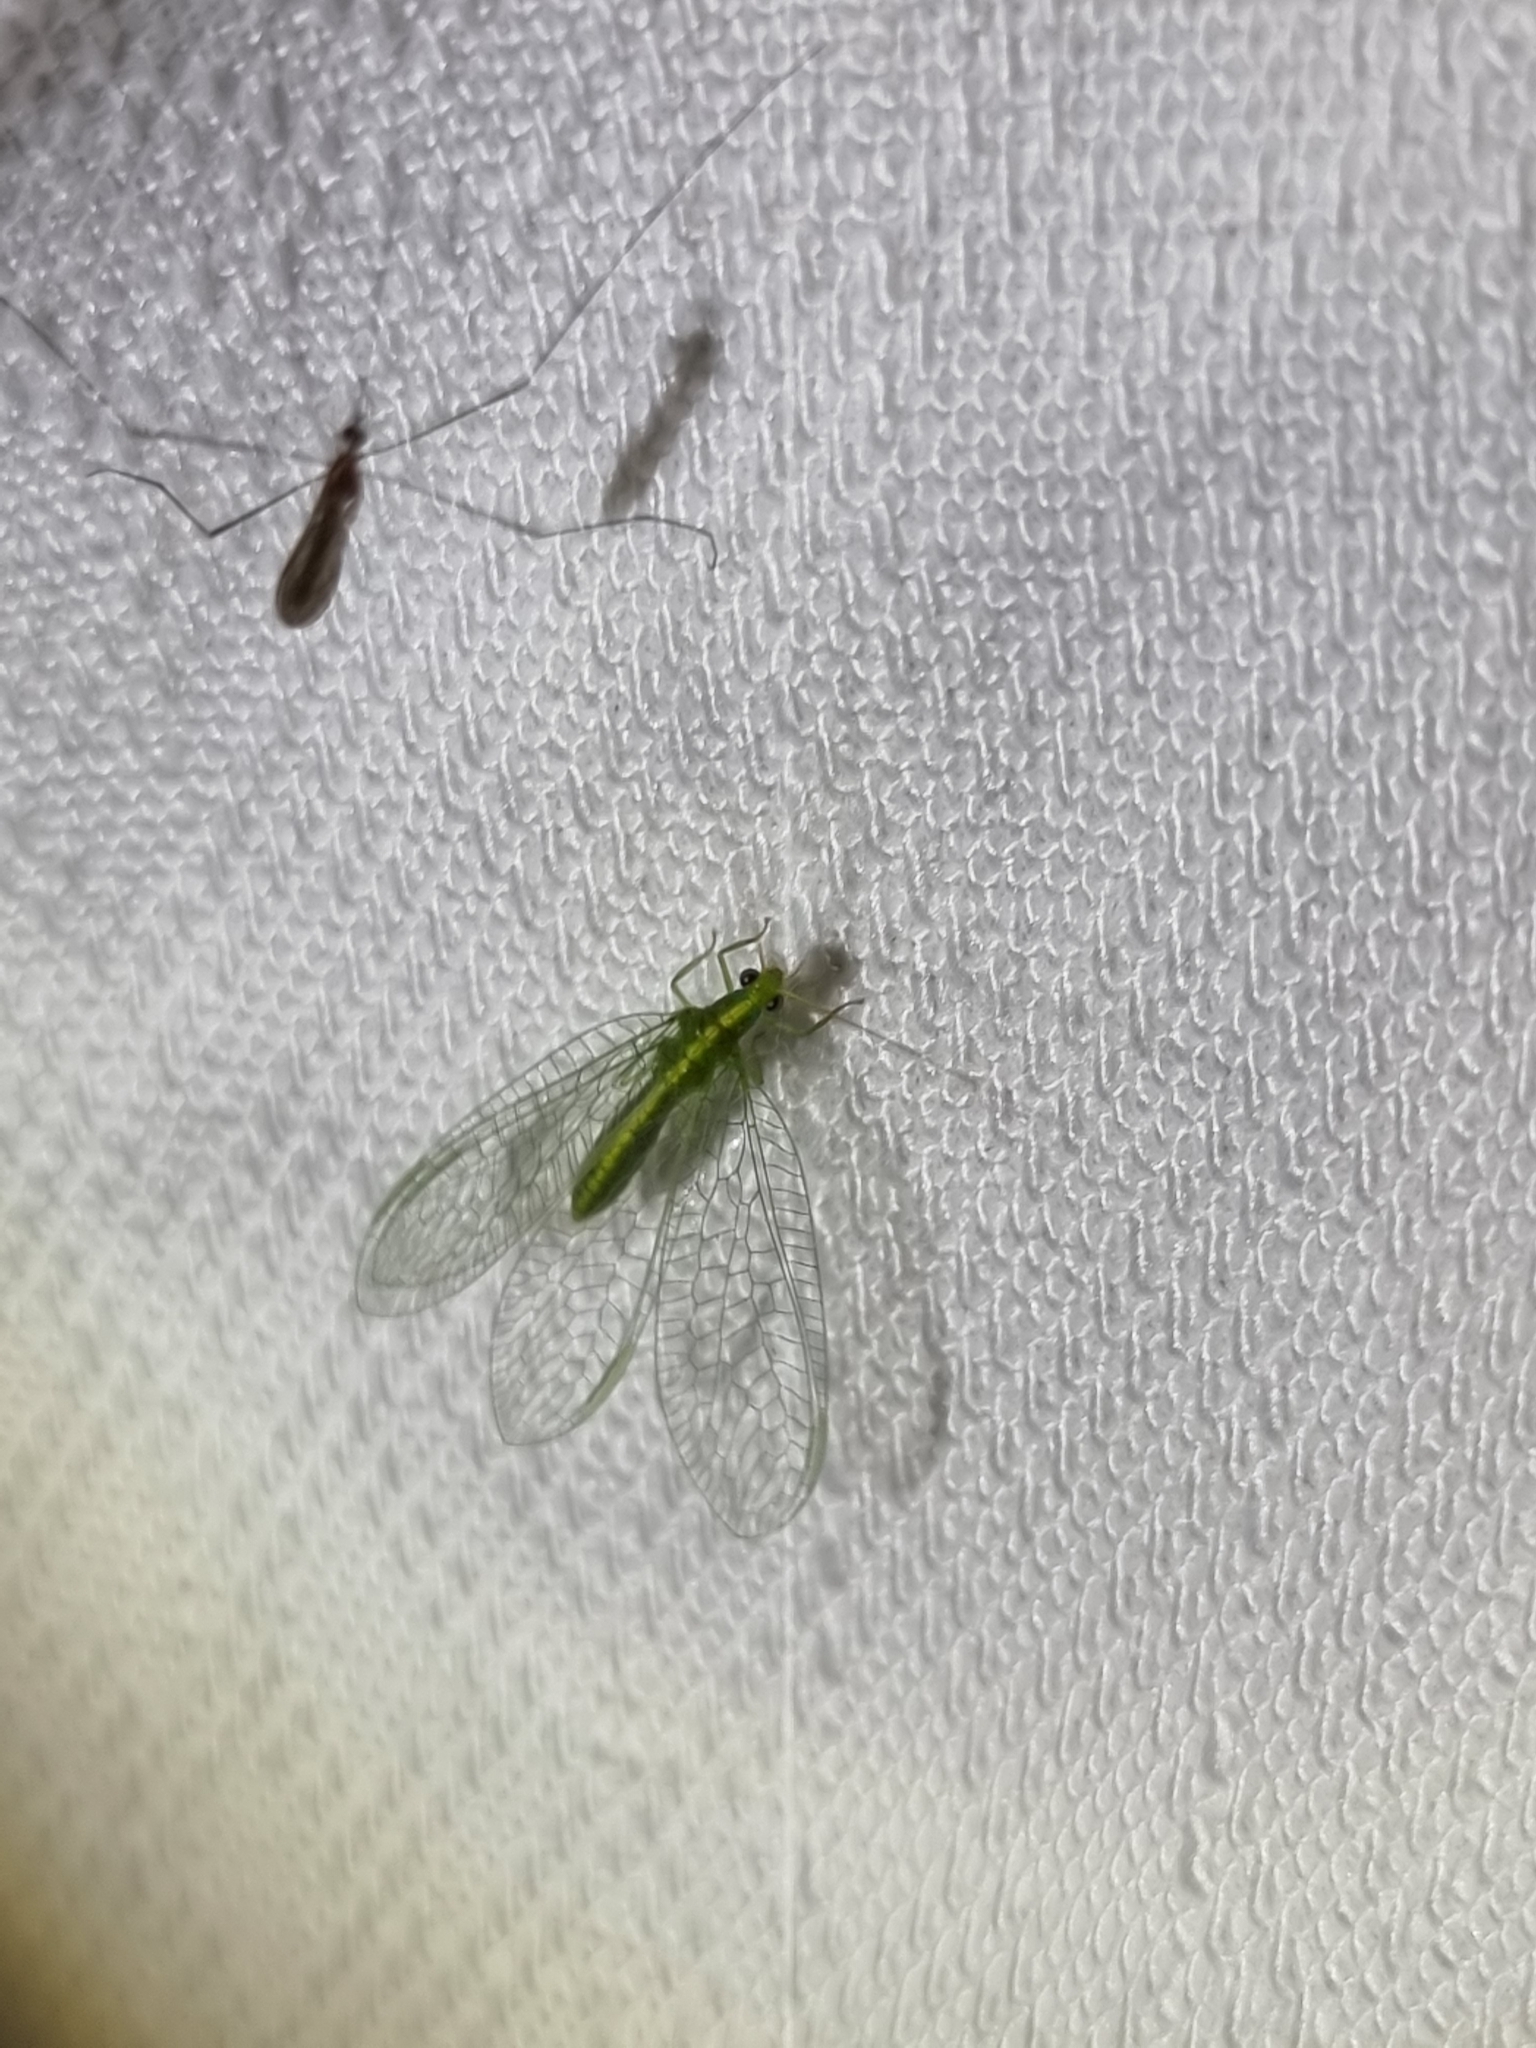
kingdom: Animalia
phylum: Arthropoda
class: Insecta
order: Neuroptera
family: Chrysopidae
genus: Mallada
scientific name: Mallada signatus
